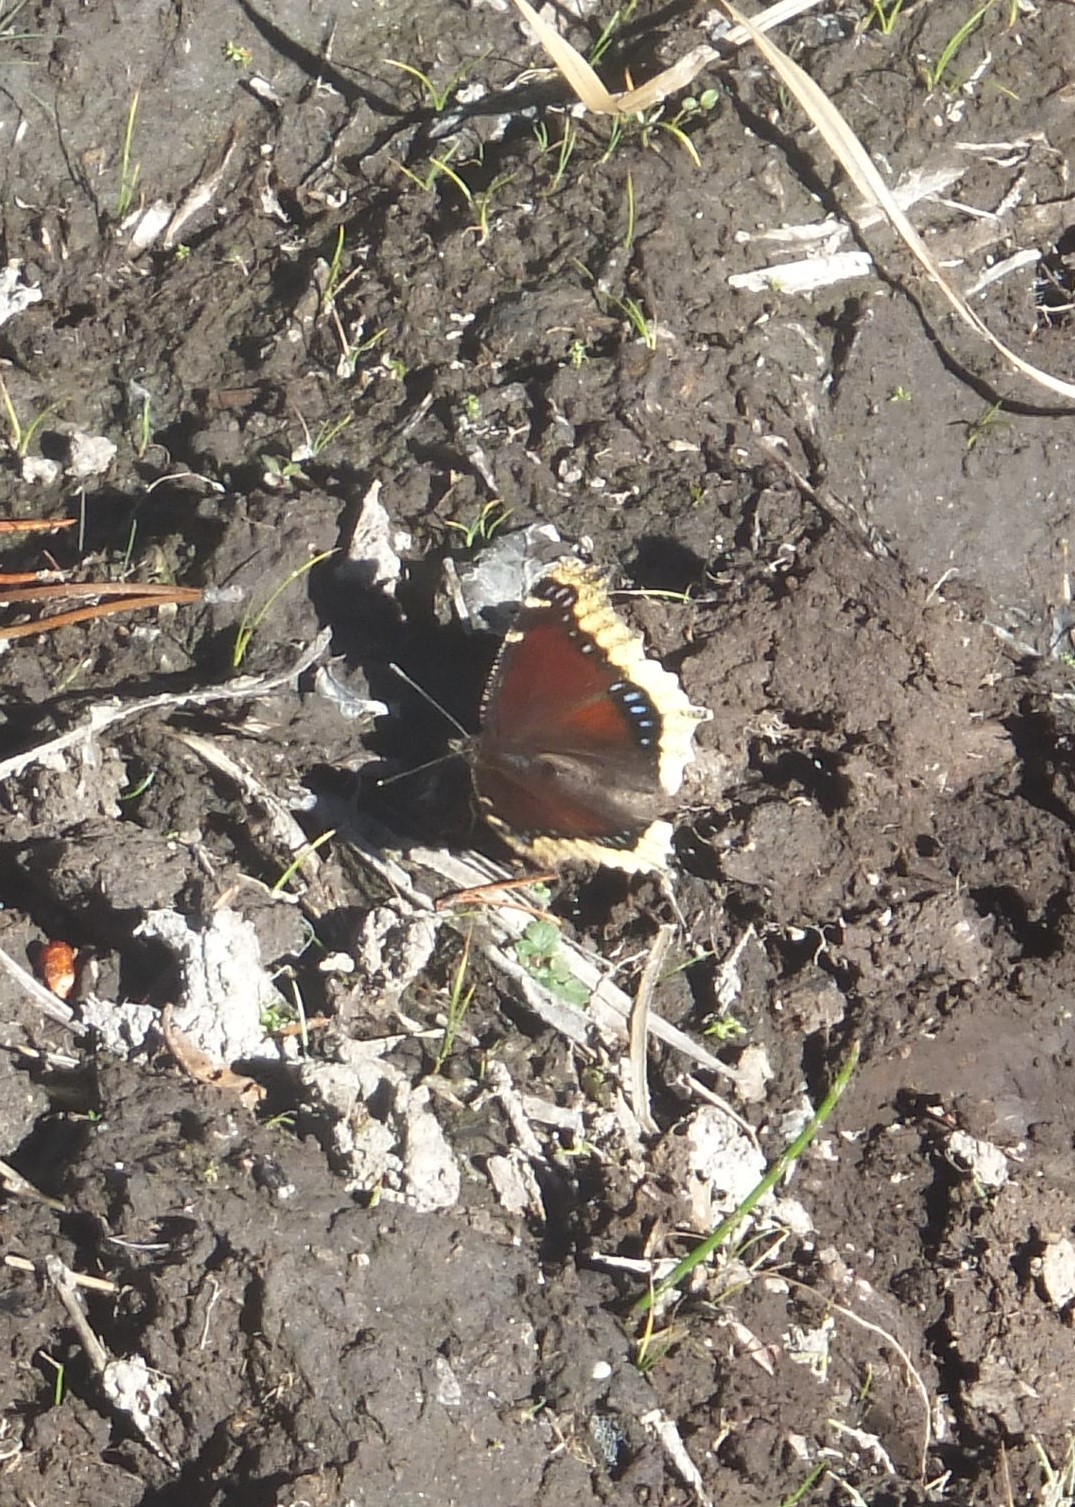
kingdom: Animalia
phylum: Arthropoda
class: Insecta
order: Lepidoptera
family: Nymphalidae
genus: Nymphalis
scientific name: Nymphalis antiopa
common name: Camberwell beauty
